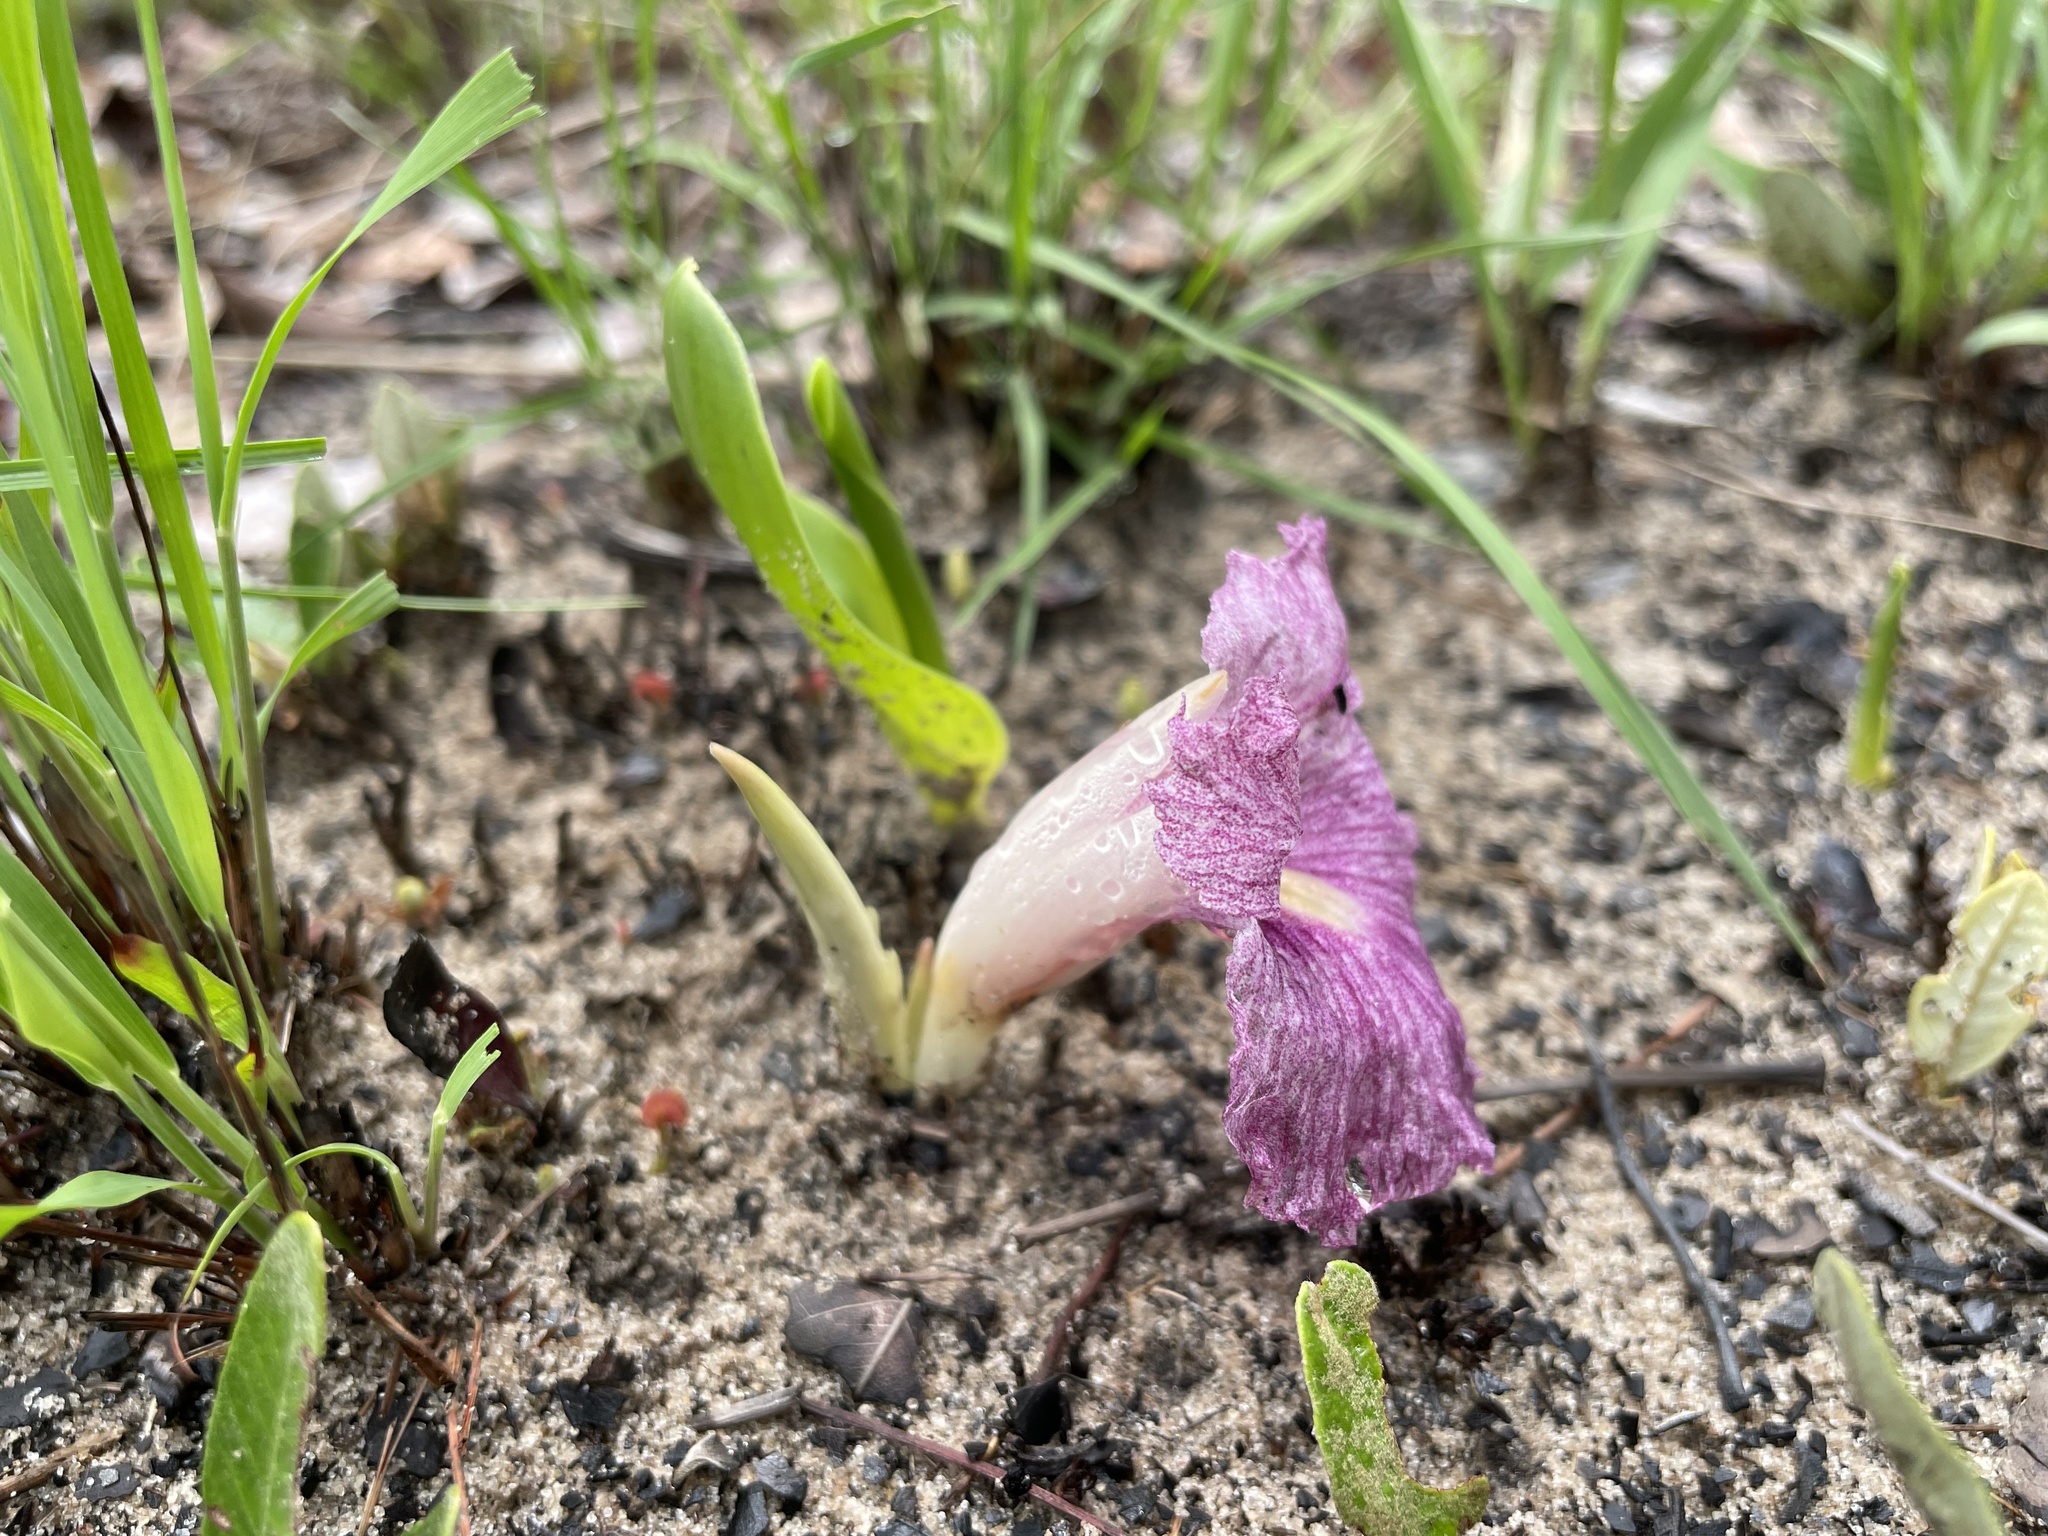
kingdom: Plantae
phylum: Tracheophyta
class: Liliopsida
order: Zingiberales
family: Zingiberaceae
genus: Siphonochilus
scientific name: Siphonochilus puncticulatus
